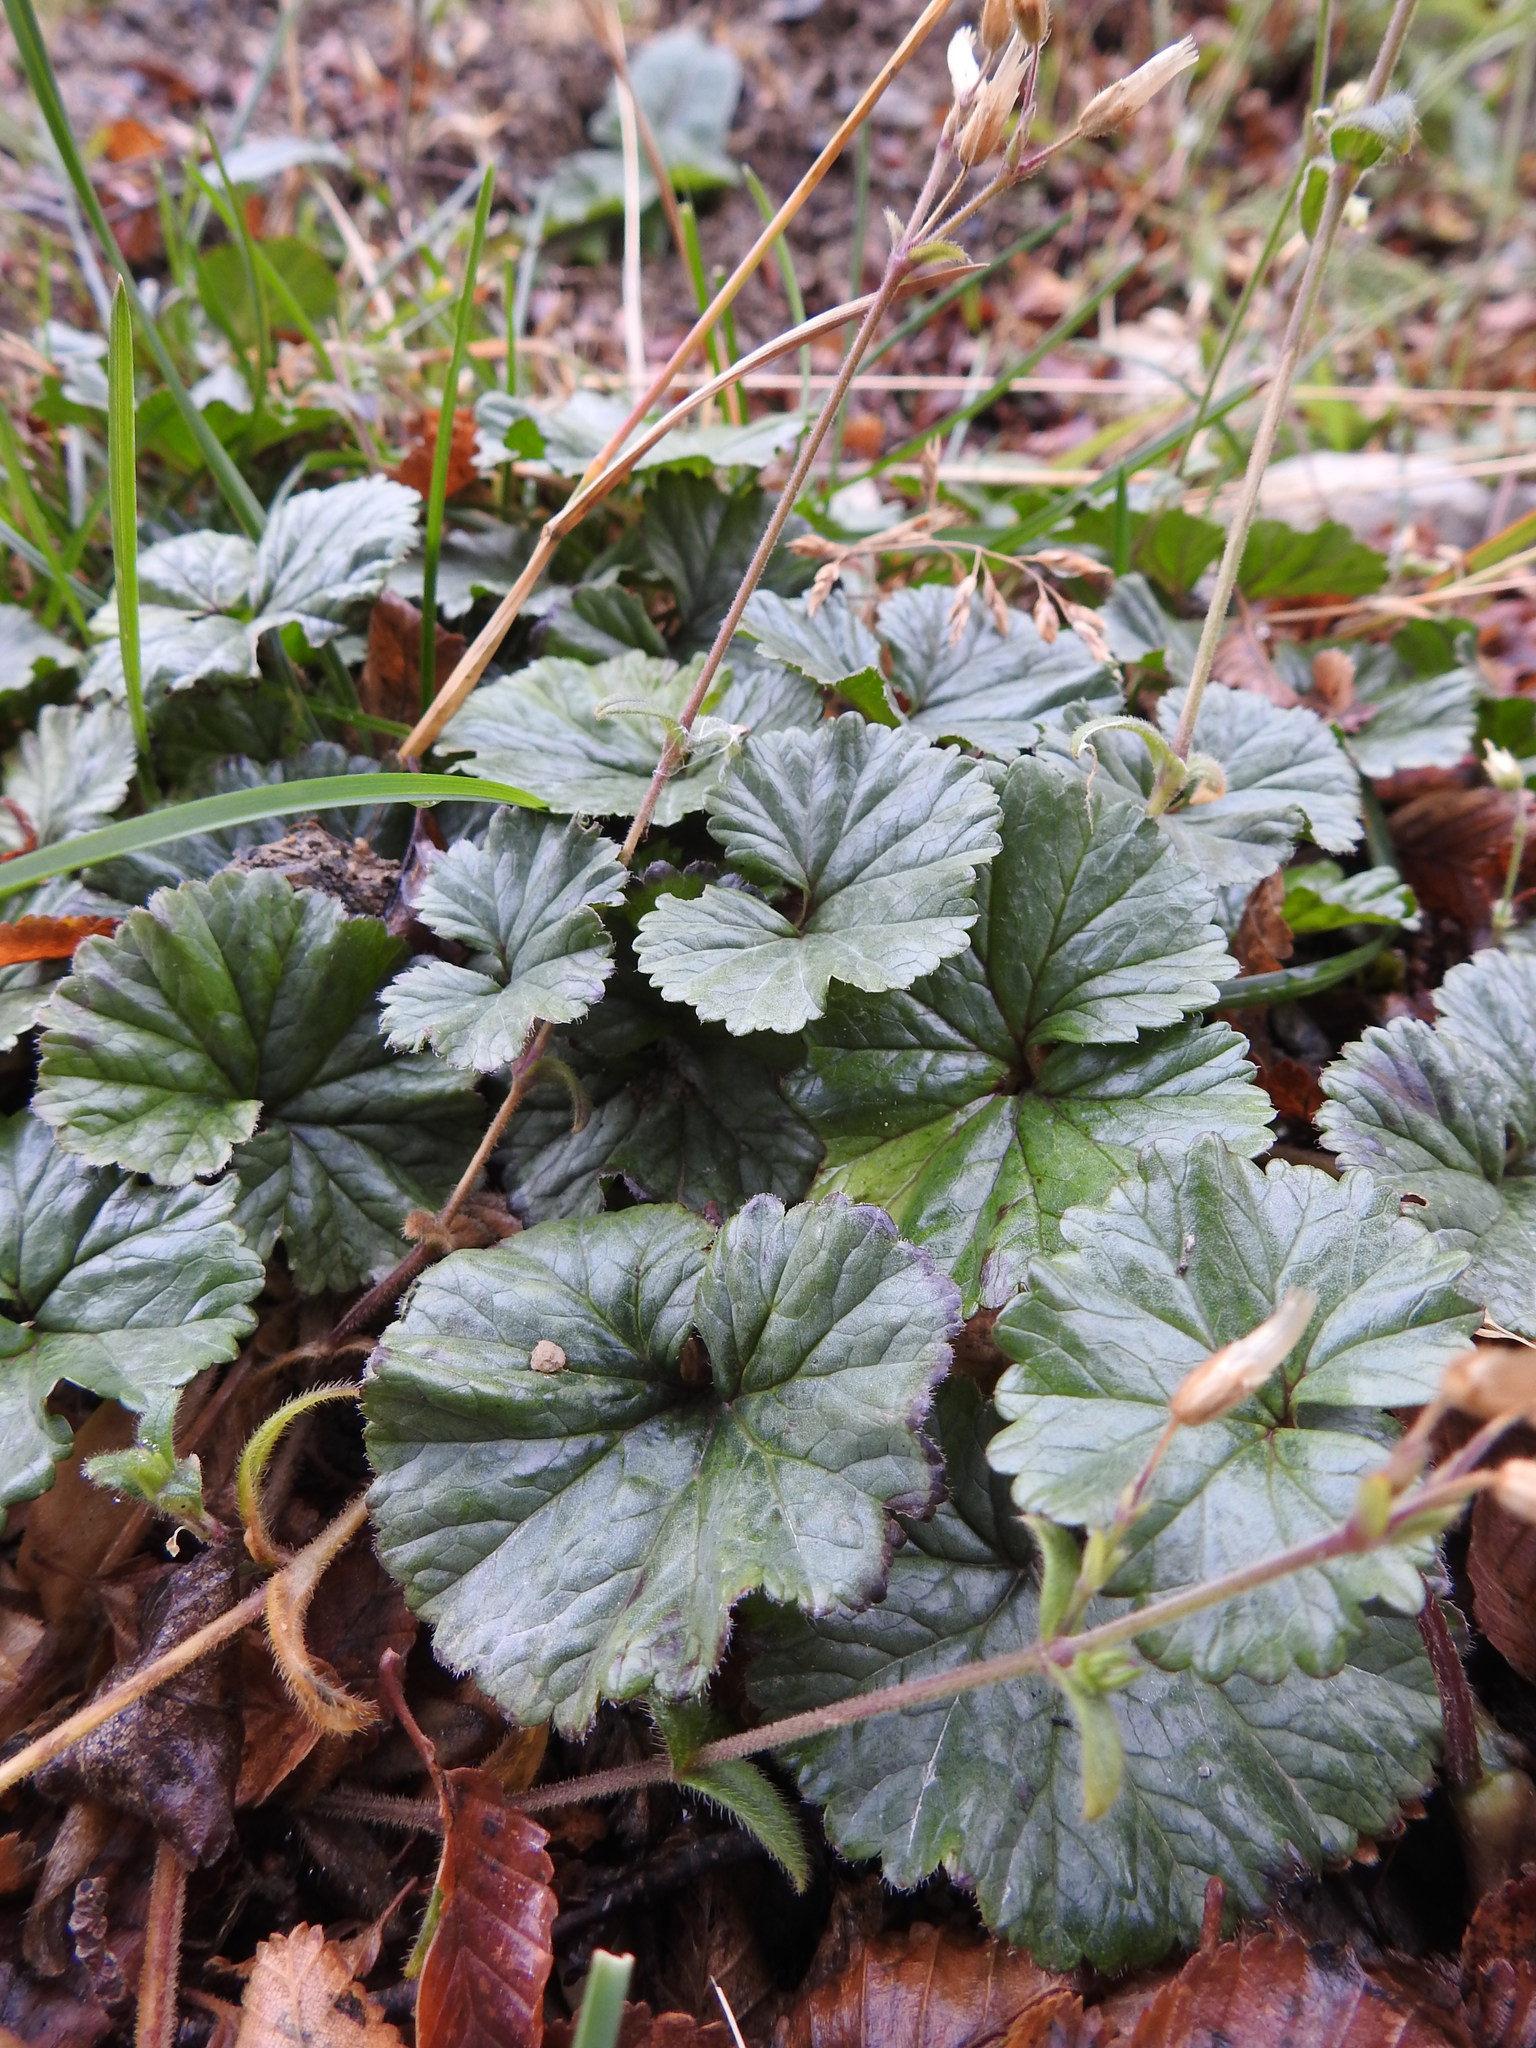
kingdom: Plantae
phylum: Tracheophyta
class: Magnoliopsida
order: Gunnerales
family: Gunneraceae
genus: Gunnera
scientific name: Gunnera magellanica
